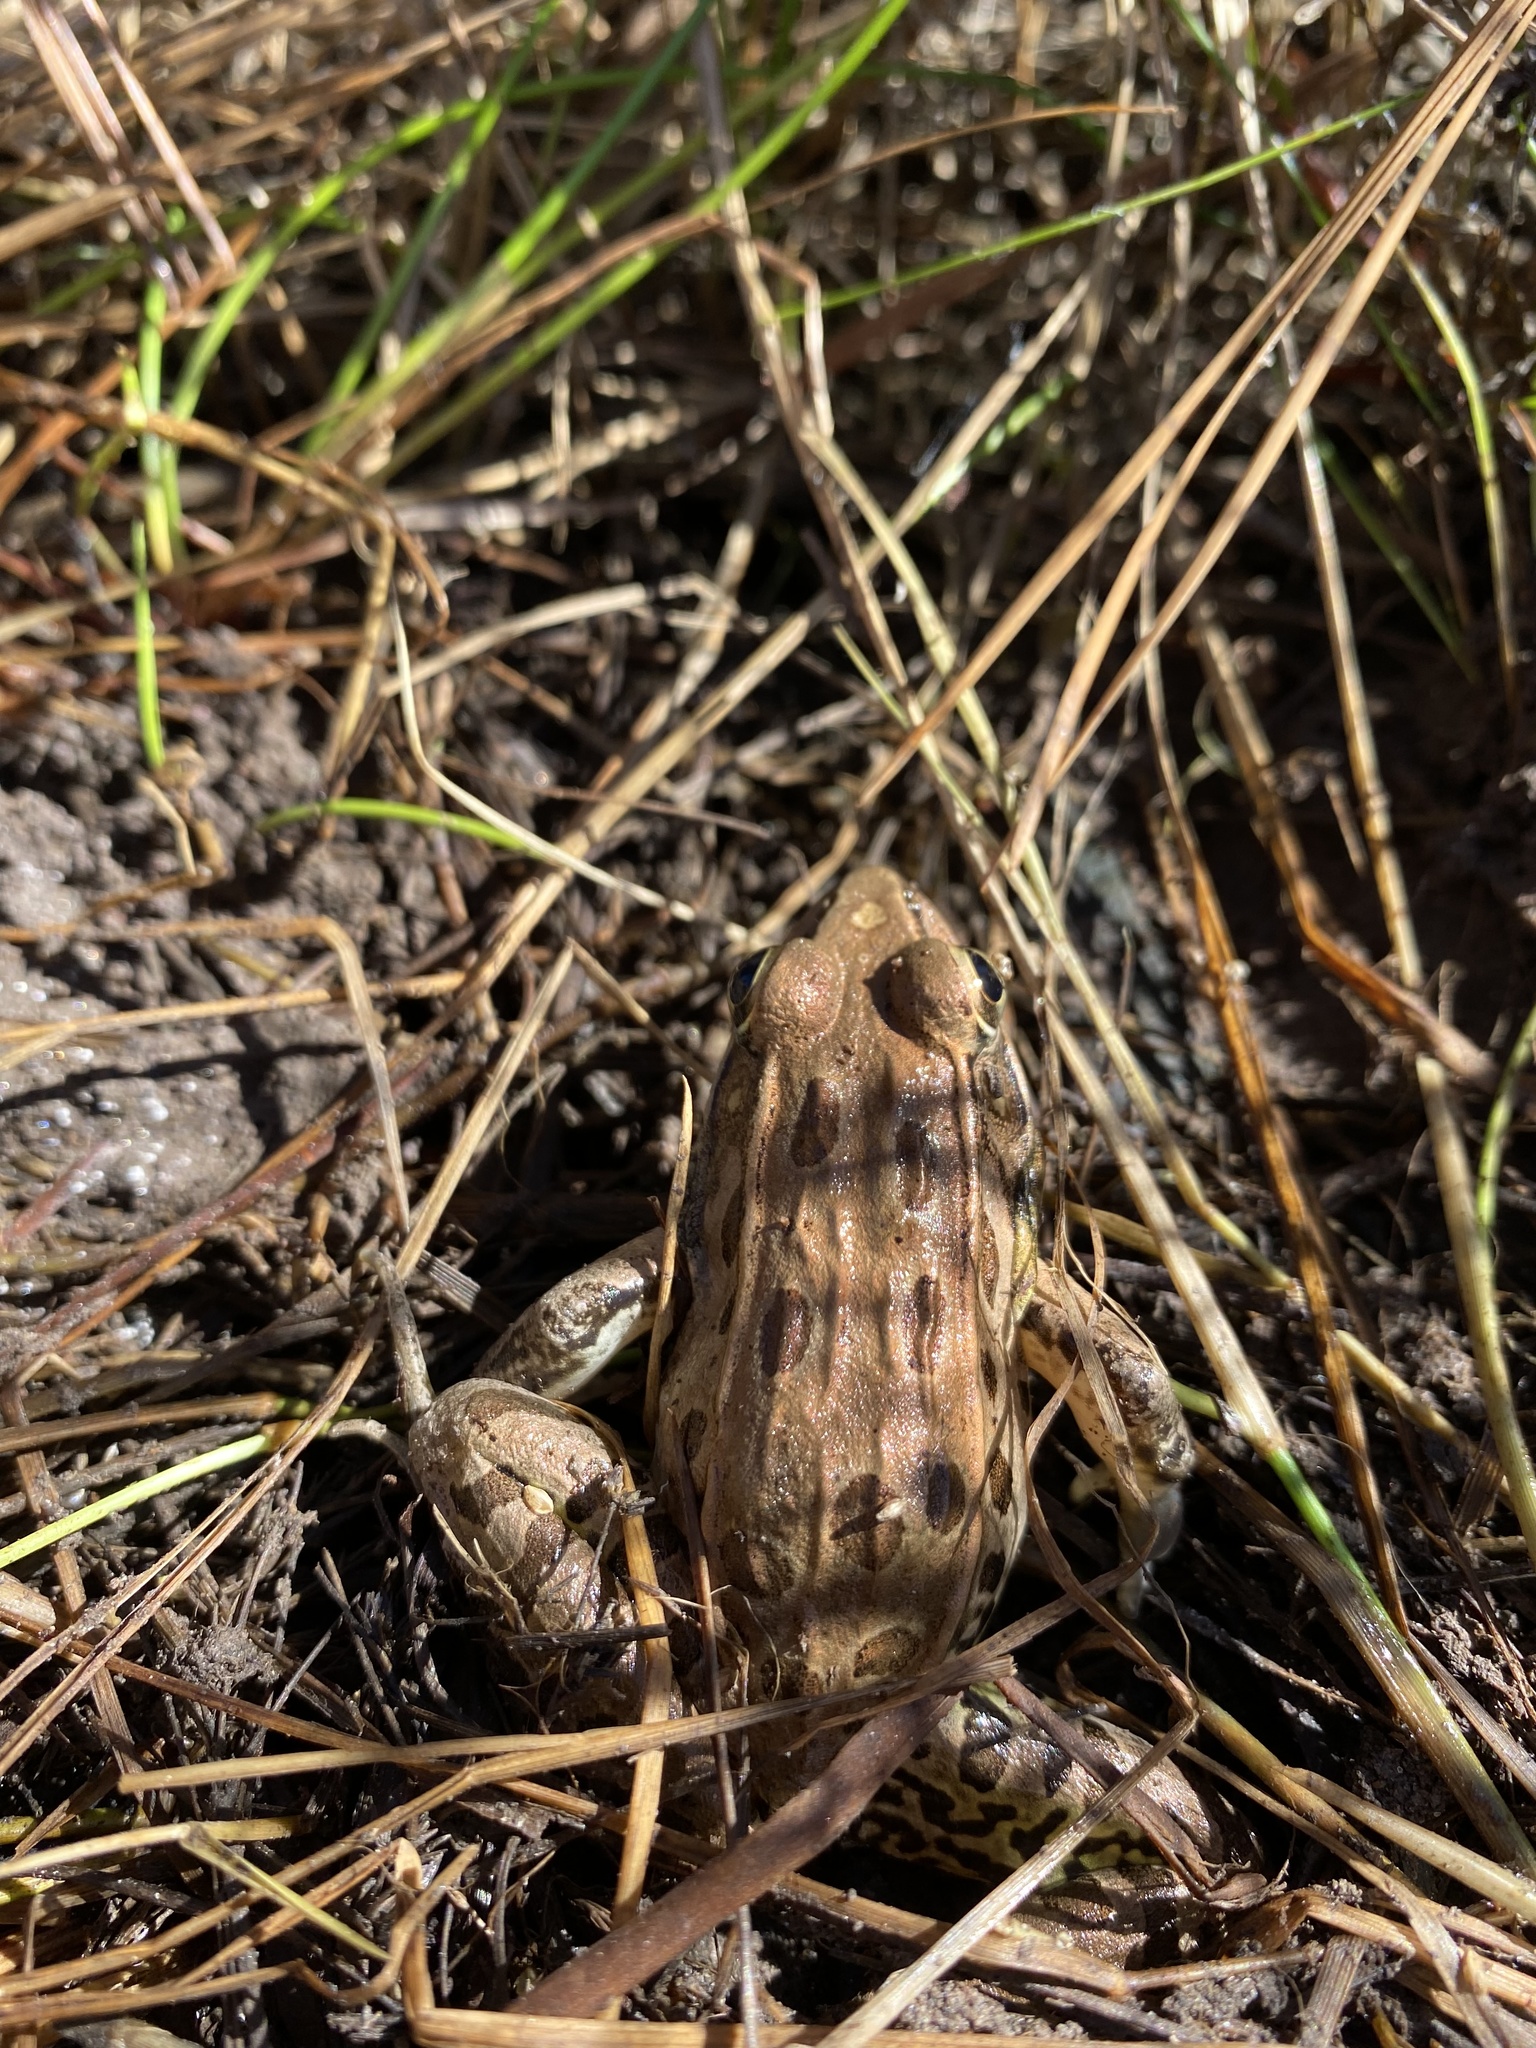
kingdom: Animalia
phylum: Chordata
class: Amphibia
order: Anura
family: Ranidae
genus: Lithobates
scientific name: Lithobates sphenocephalus
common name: Southern leopard frog
